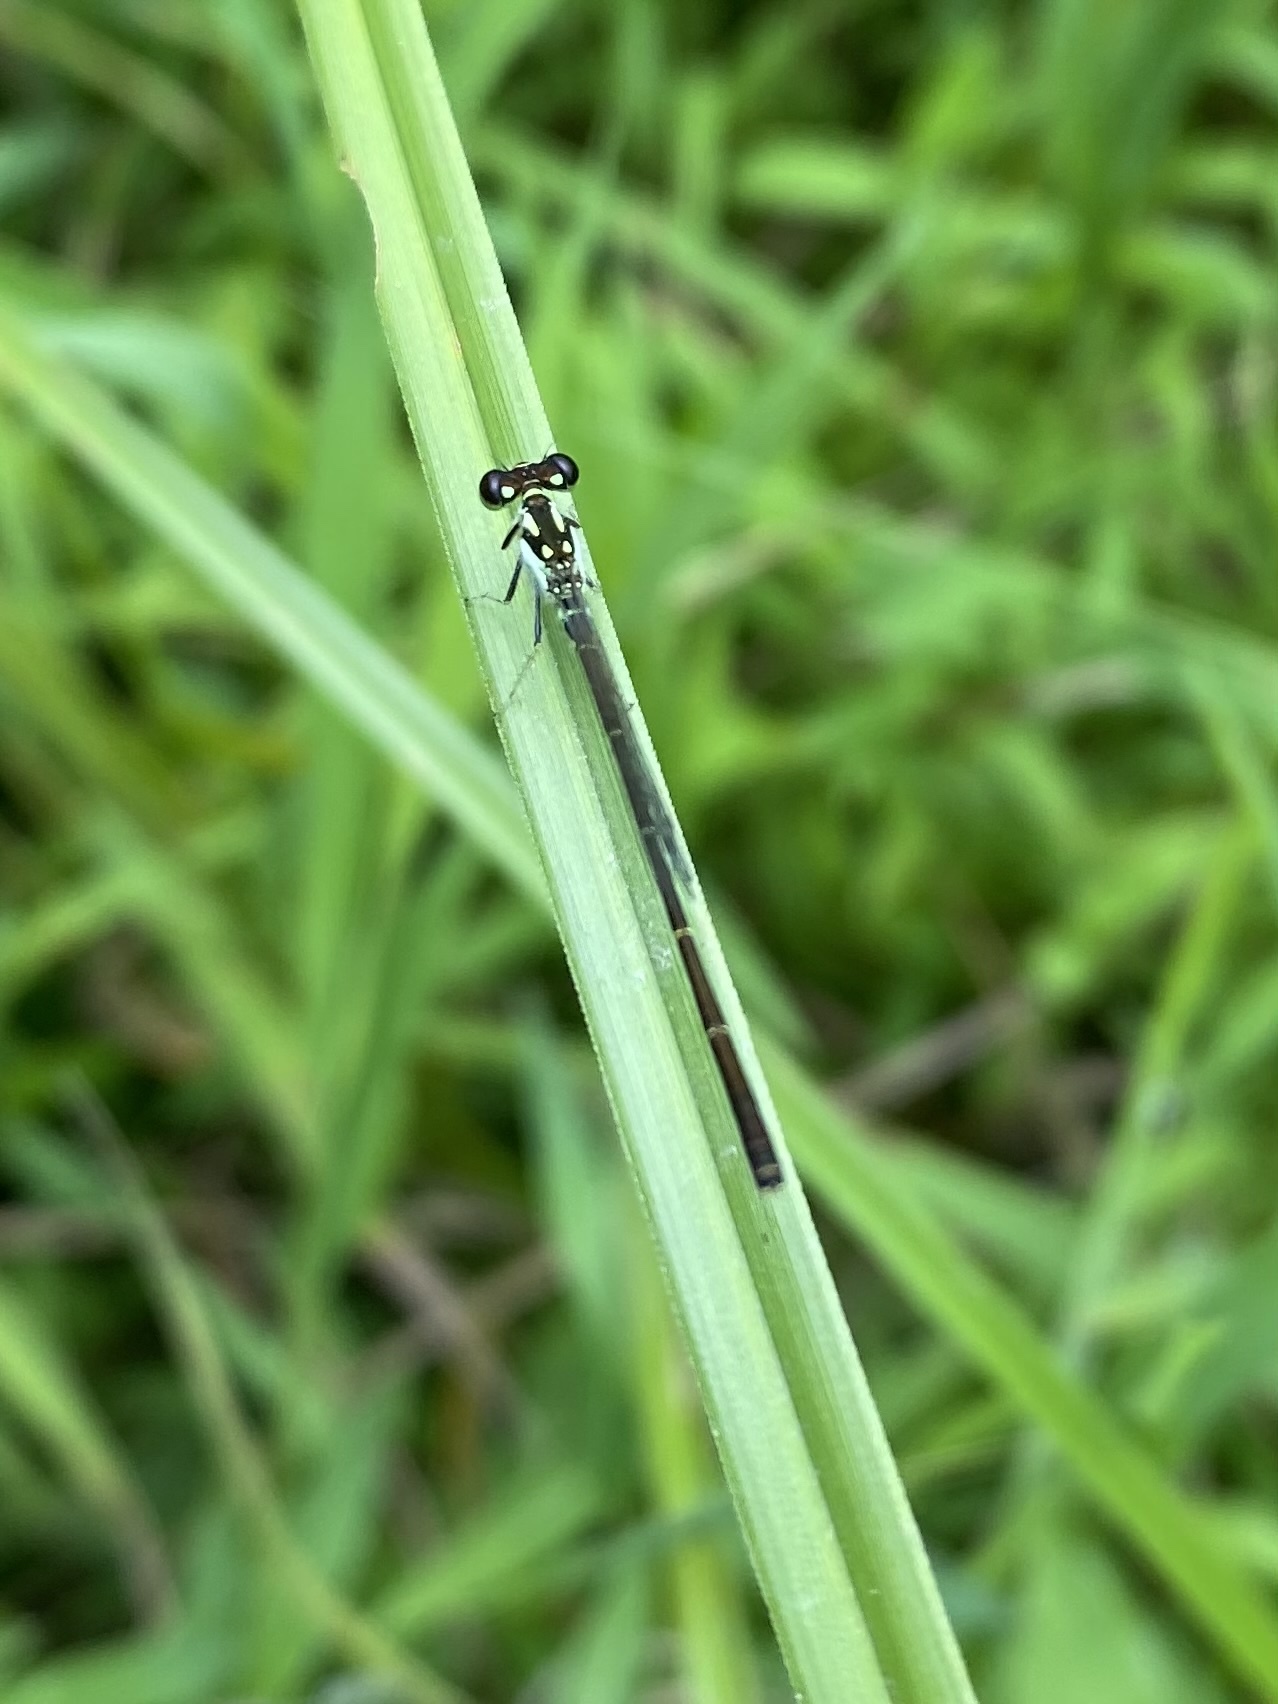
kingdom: Animalia
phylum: Arthropoda
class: Insecta
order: Odonata
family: Coenagrionidae
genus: Ischnura
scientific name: Ischnura posita
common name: Fragile forktail
